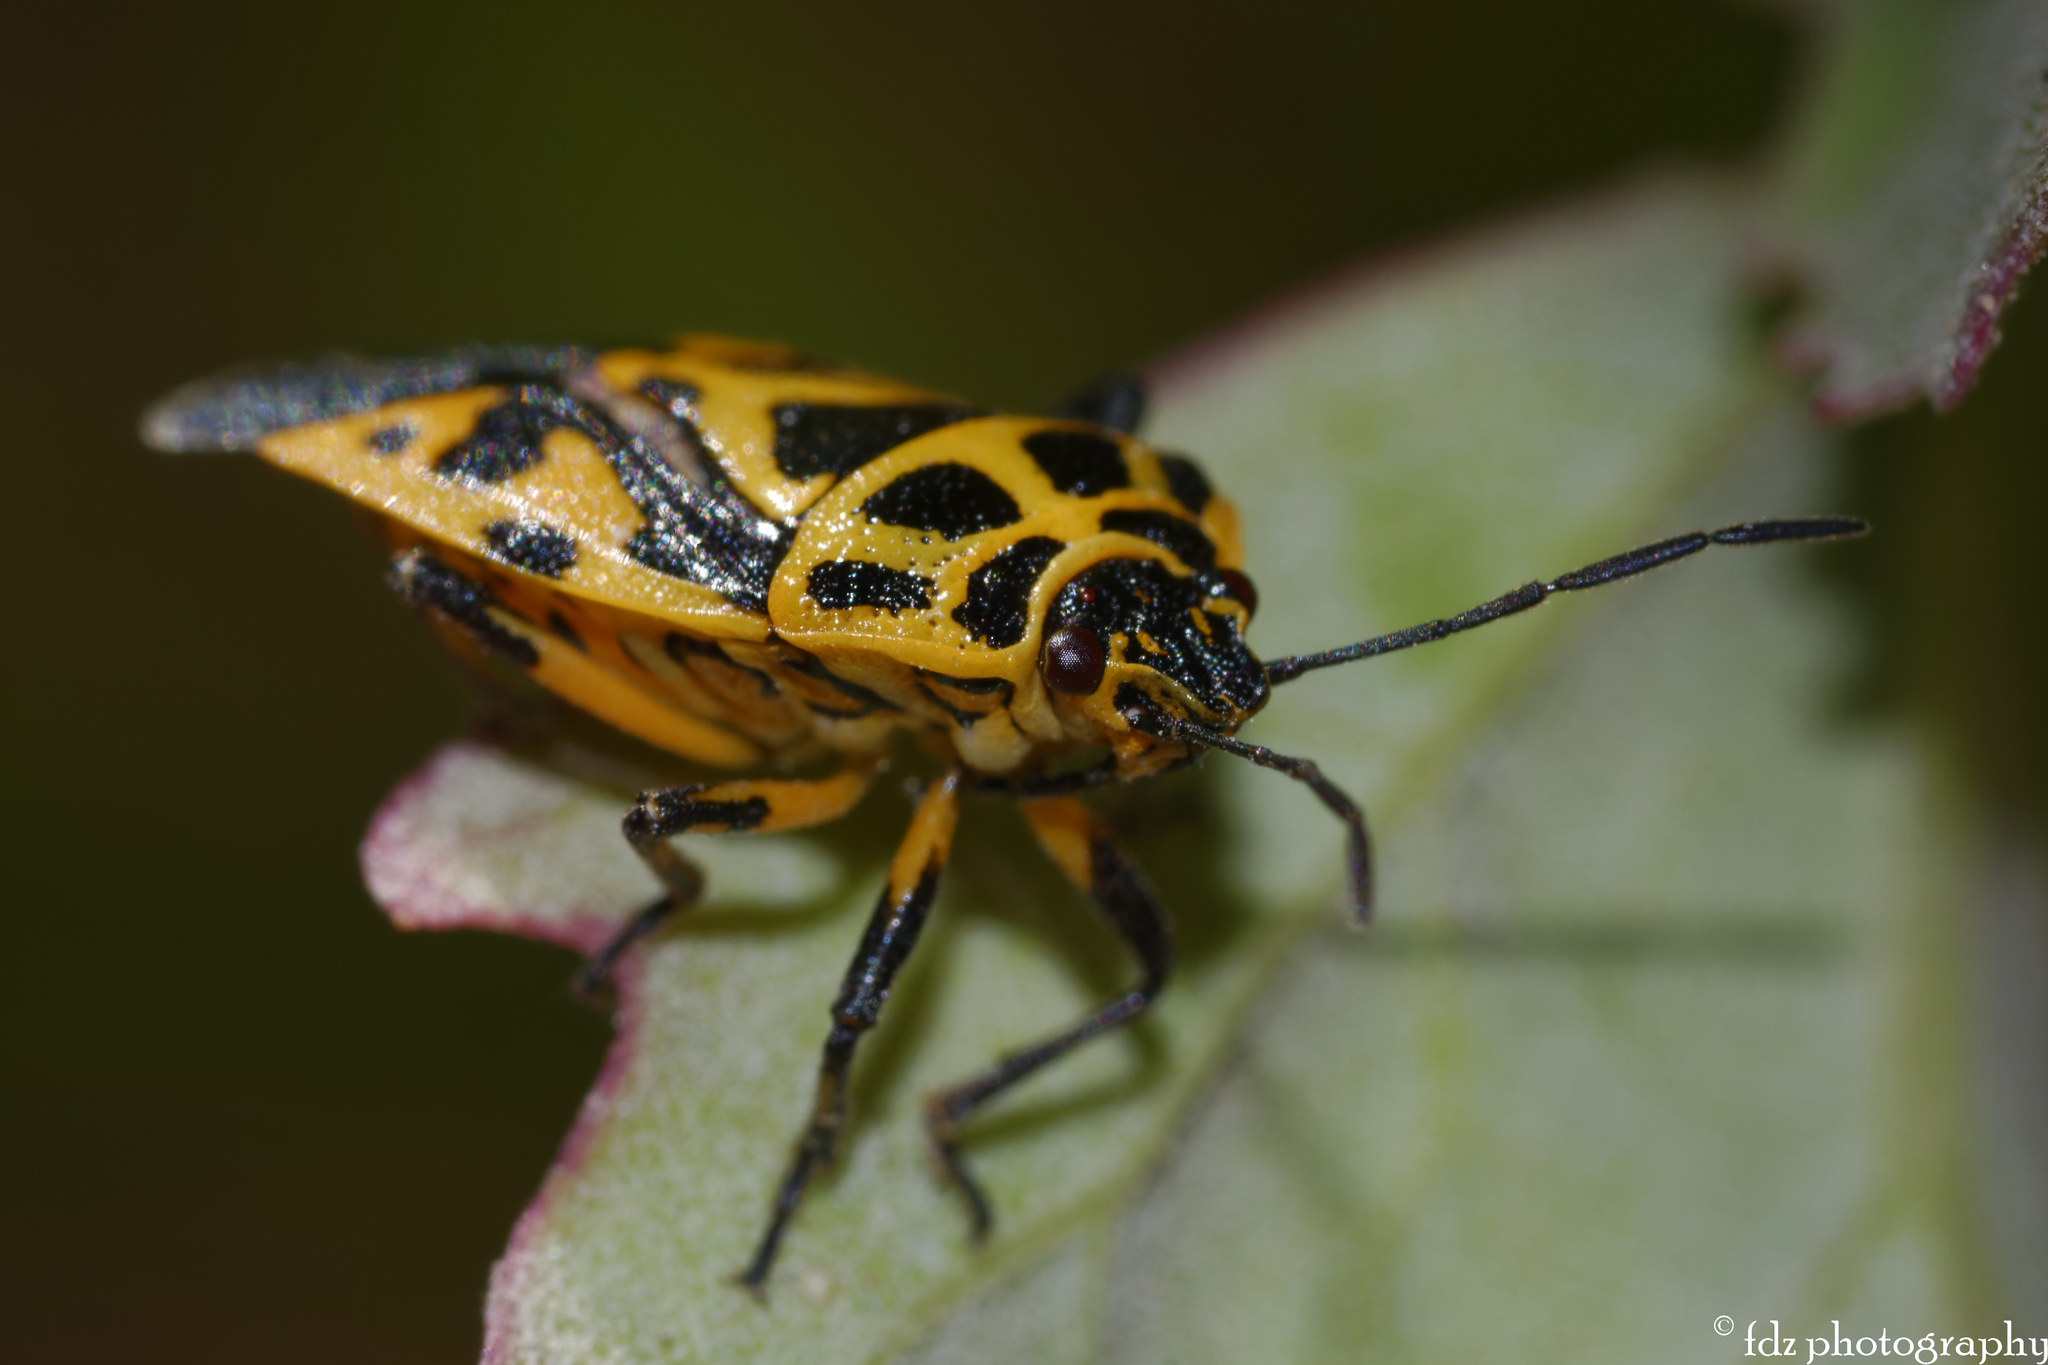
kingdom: Animalia
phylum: Arthropoda
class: Insecta
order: Hemiptera
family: Pentatomidae
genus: Eurydema
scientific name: Eurydema ventralis
